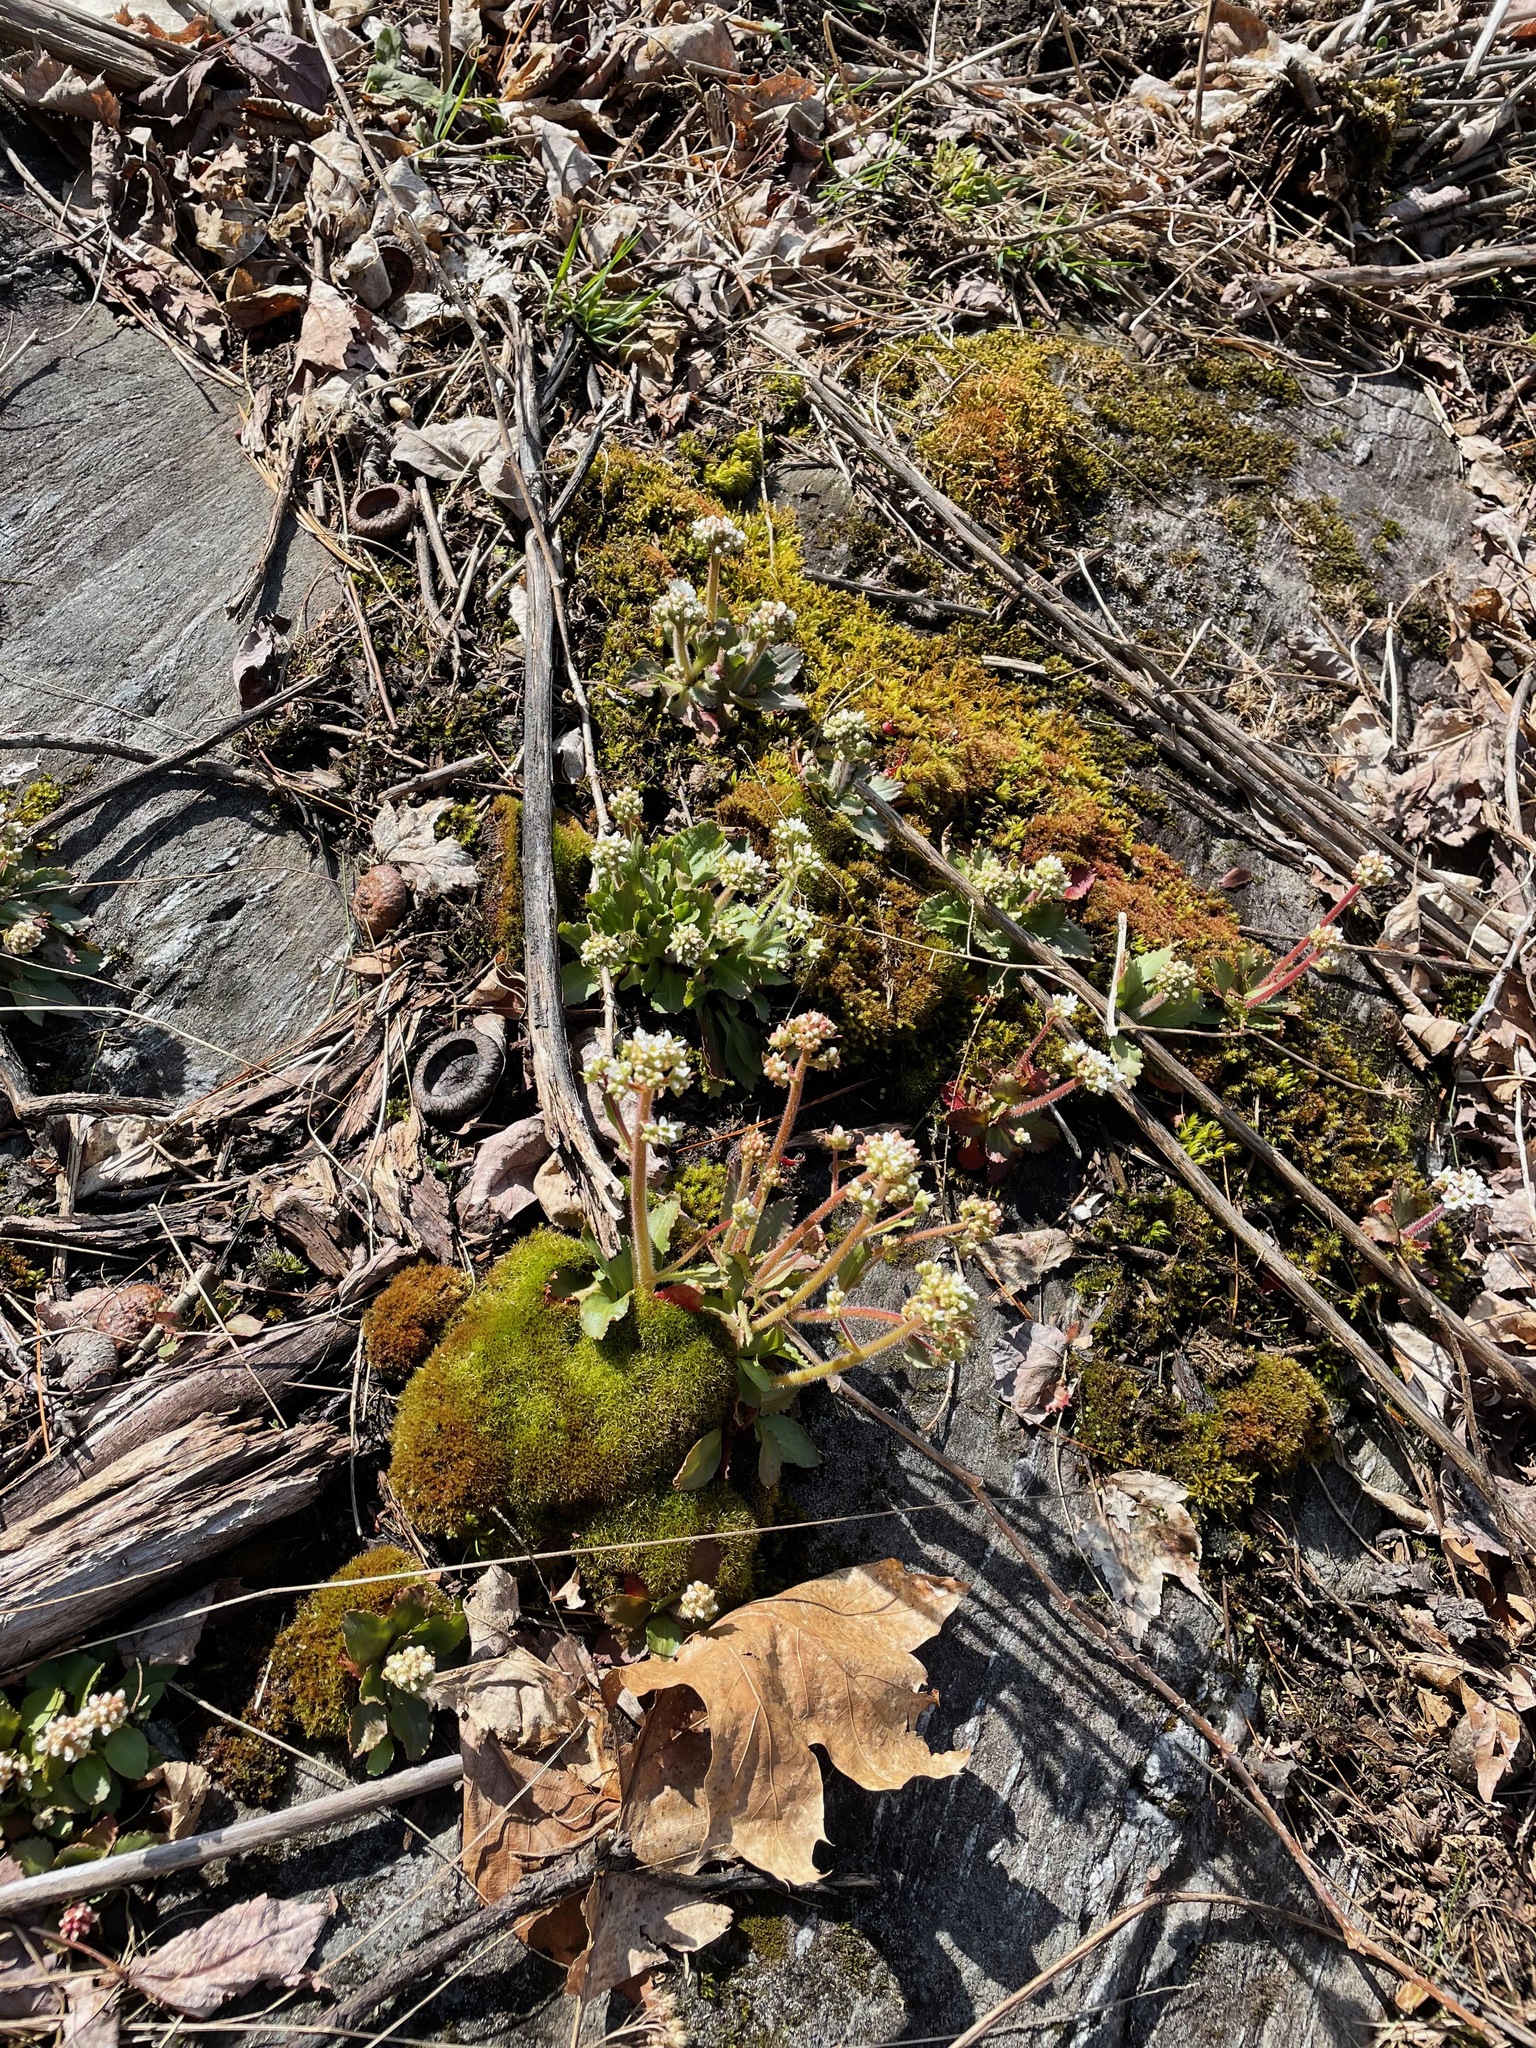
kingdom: Plantae
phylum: Tracheophyta
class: Magnoliopsida
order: Saxifragales
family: Saxifragaceae
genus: Micranthes
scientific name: Micranthes virginiensis
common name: Early saxifrage
